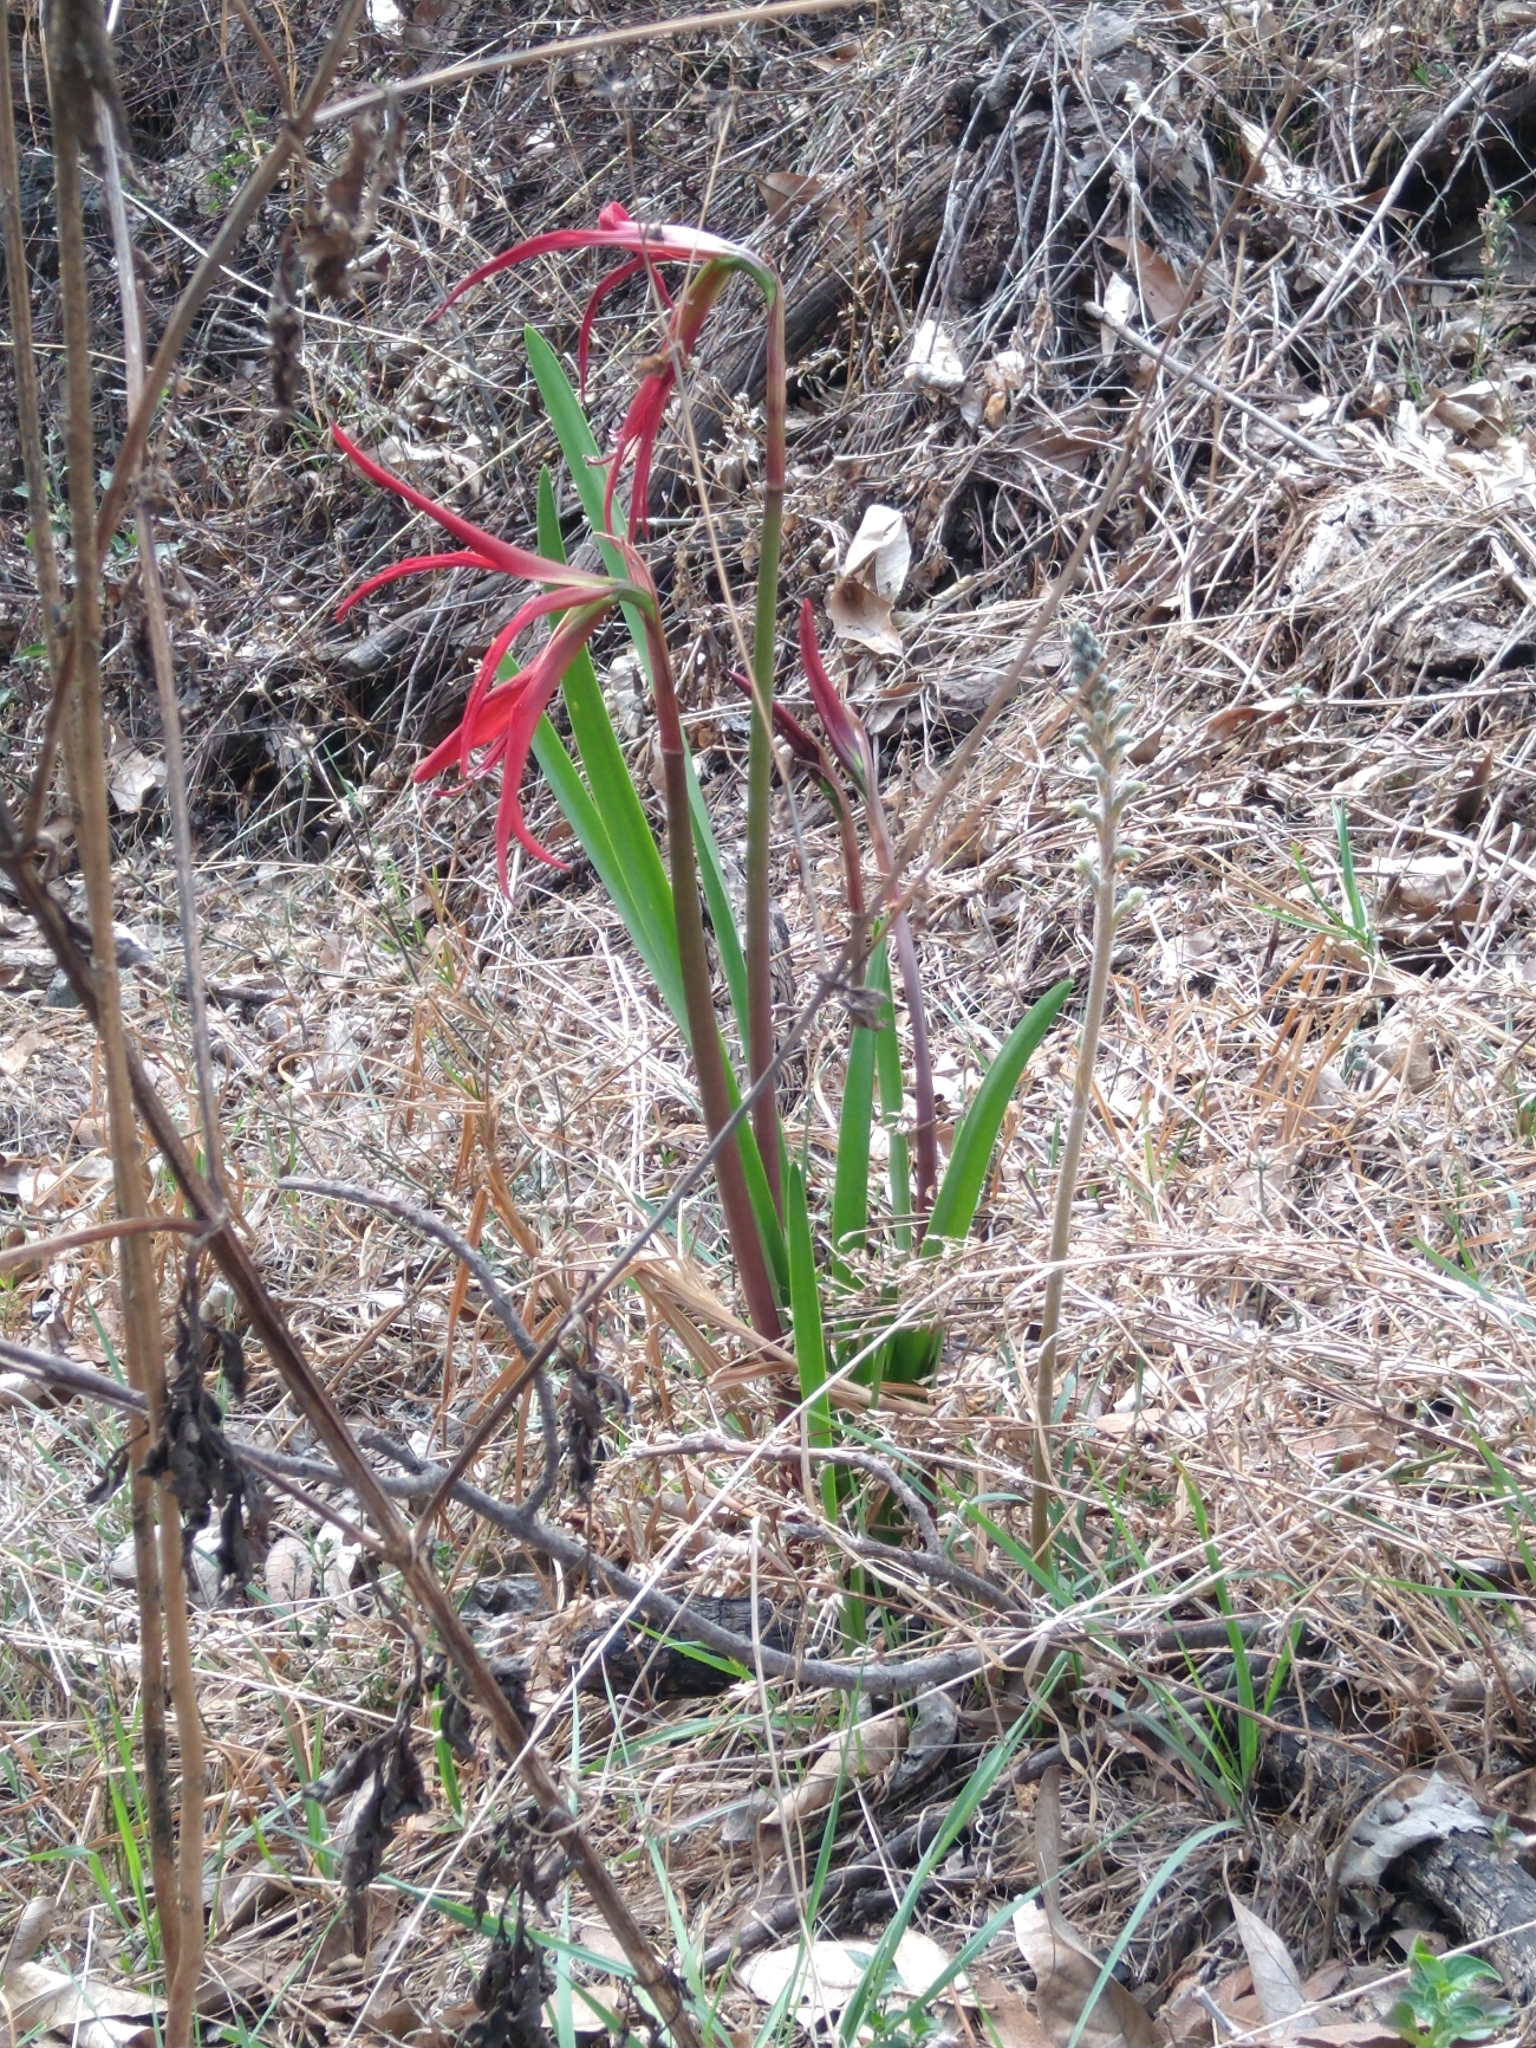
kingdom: Plantae
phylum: Tracheophyta
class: Liliopsida
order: Asparagales
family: Amaryllidaceae
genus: Sprekelia
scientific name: Sprekelia formosissima
